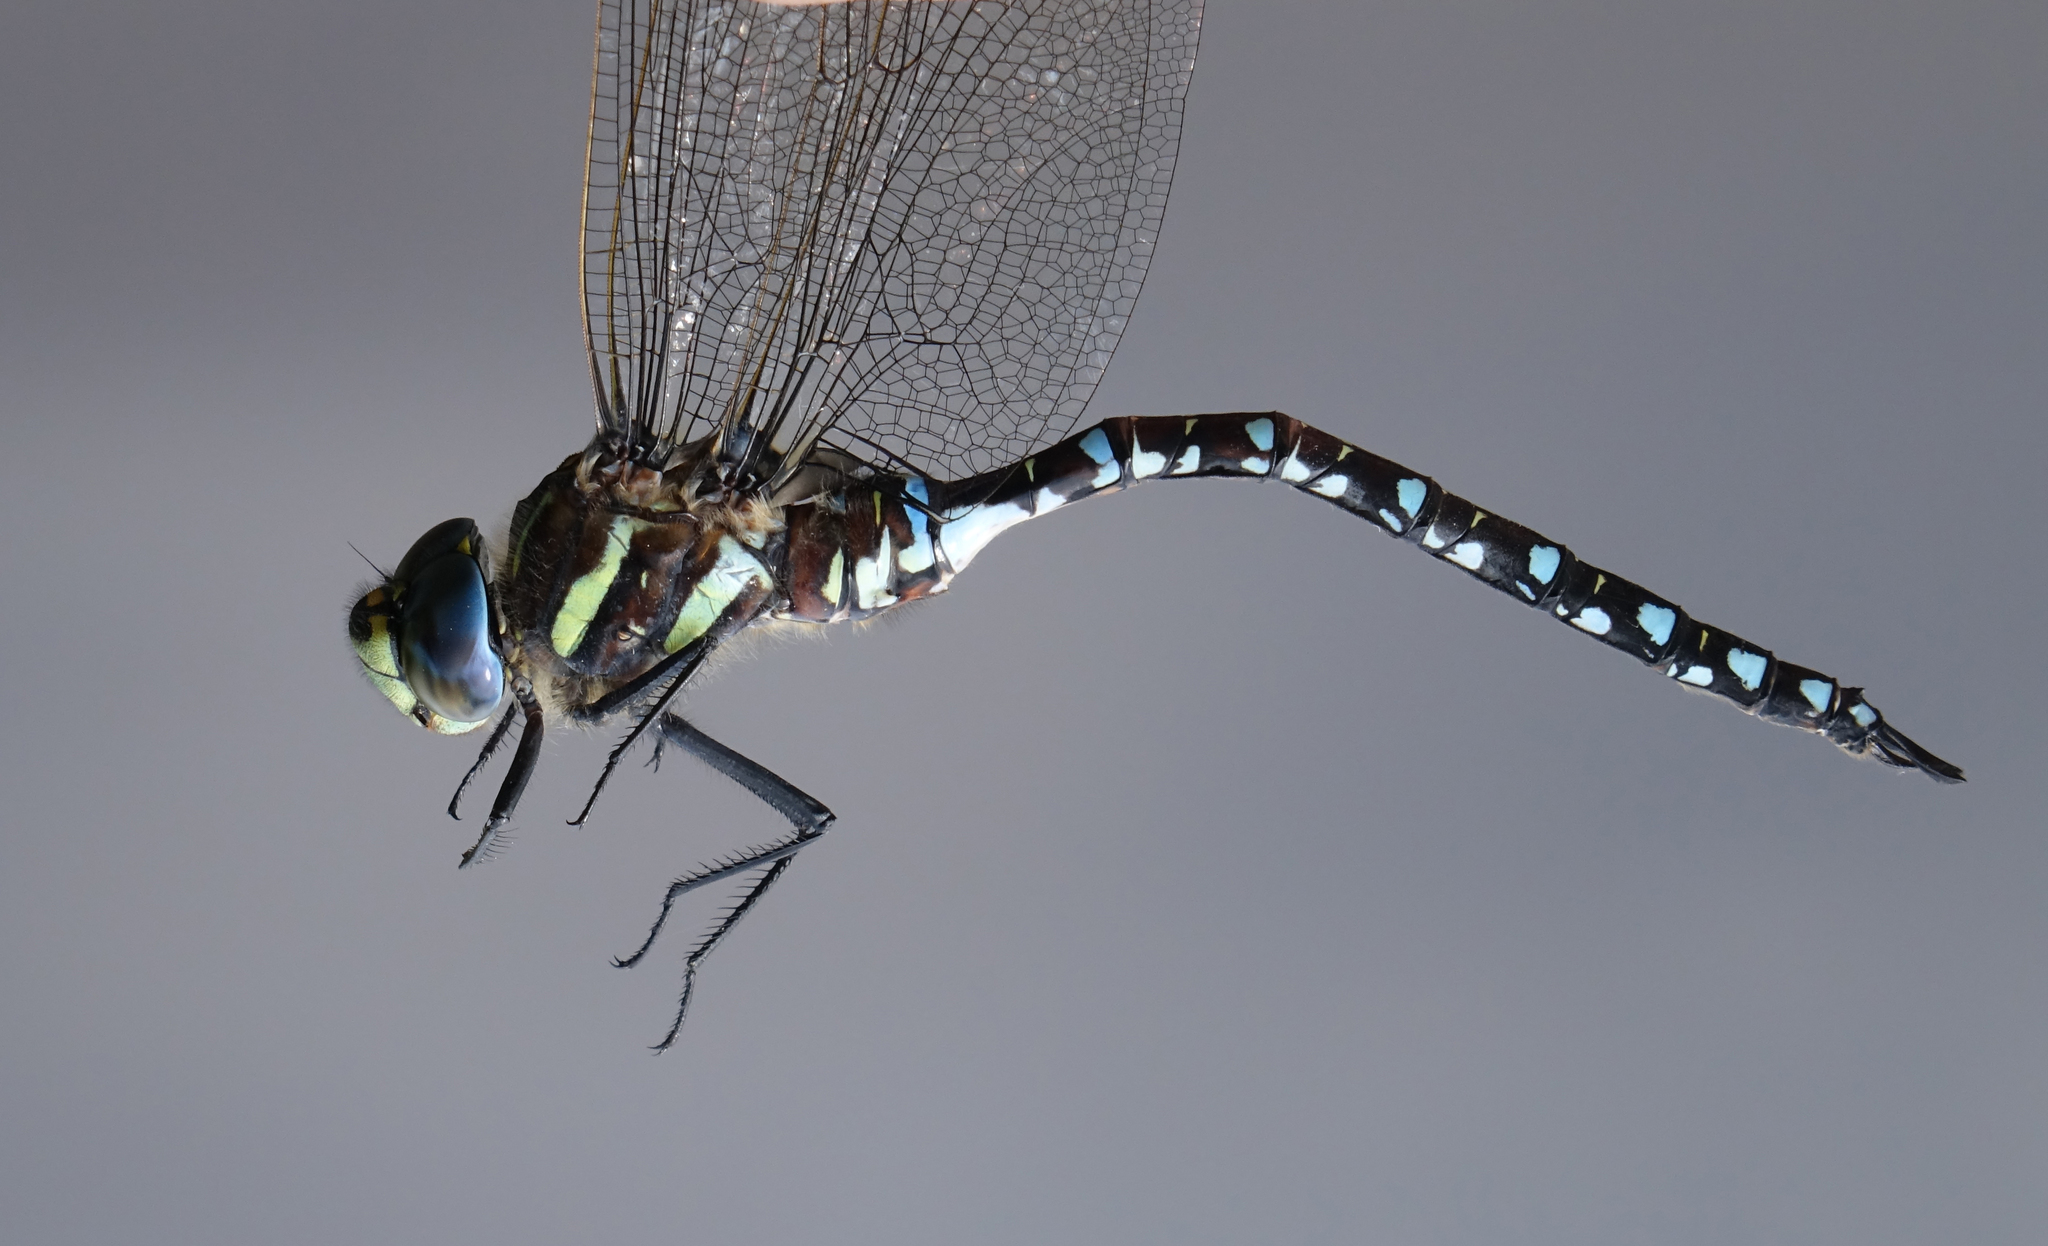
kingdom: Animalia
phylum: Arthropoda
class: Insecta
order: Odonata
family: Aeshnidae
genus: Aeshna
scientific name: Aeshna juncea
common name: Moorland hawker
